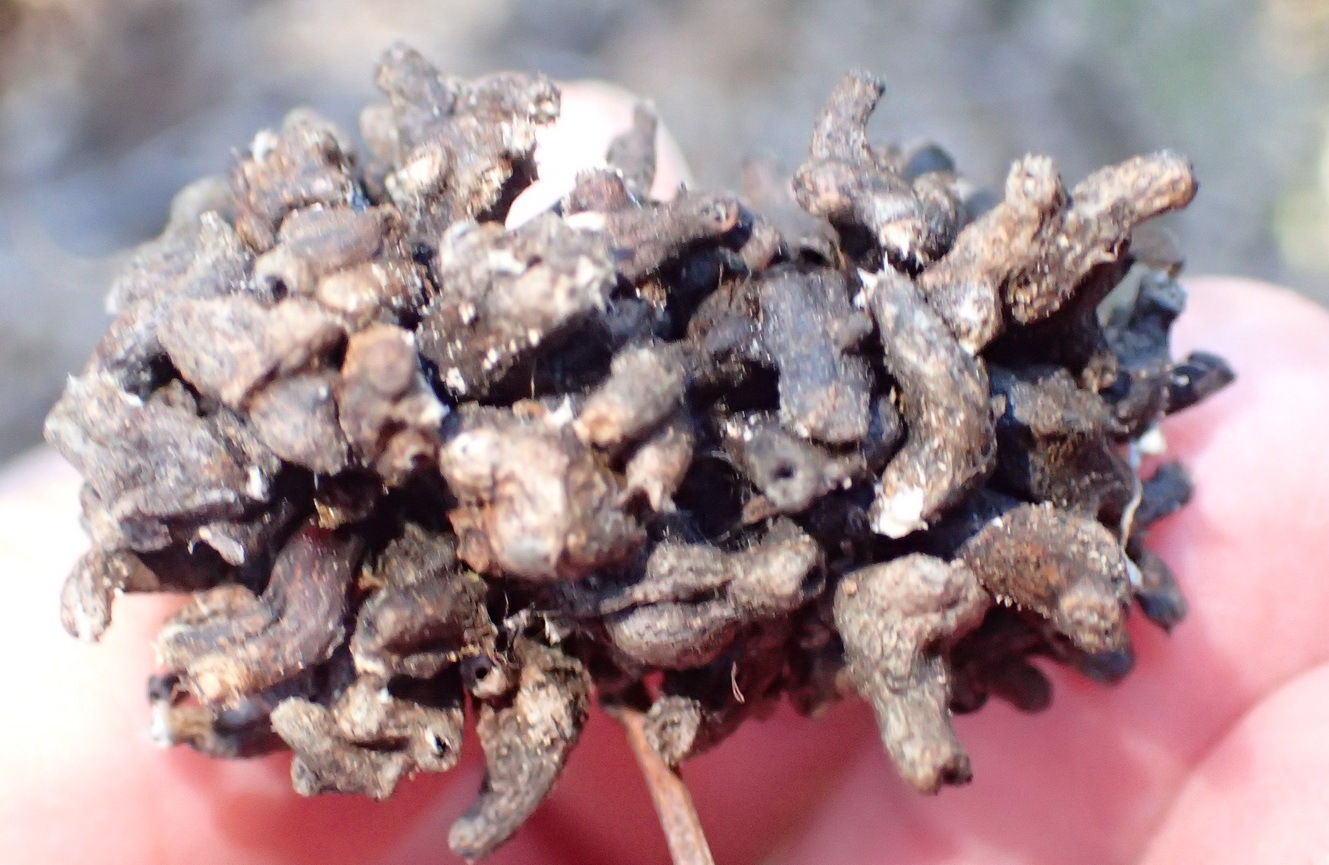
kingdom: Animalia
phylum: Arthropoda
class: Insecta
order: Diptera
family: Cecidomyiidae
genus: Dasineura
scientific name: Dasineura dielsi
